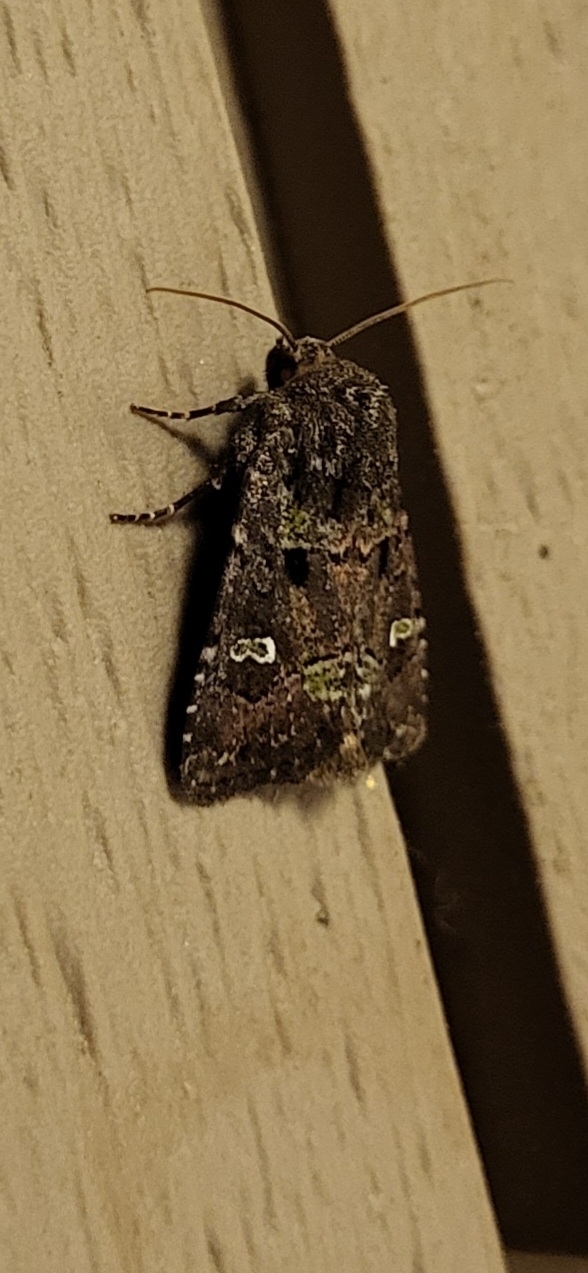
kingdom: Animalia
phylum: Arthropoda
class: Insecta
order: Lepidoptera
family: Noctuidae
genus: Lacinipolia
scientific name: Lacinipolia renigera
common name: Kidney-spotted minor
